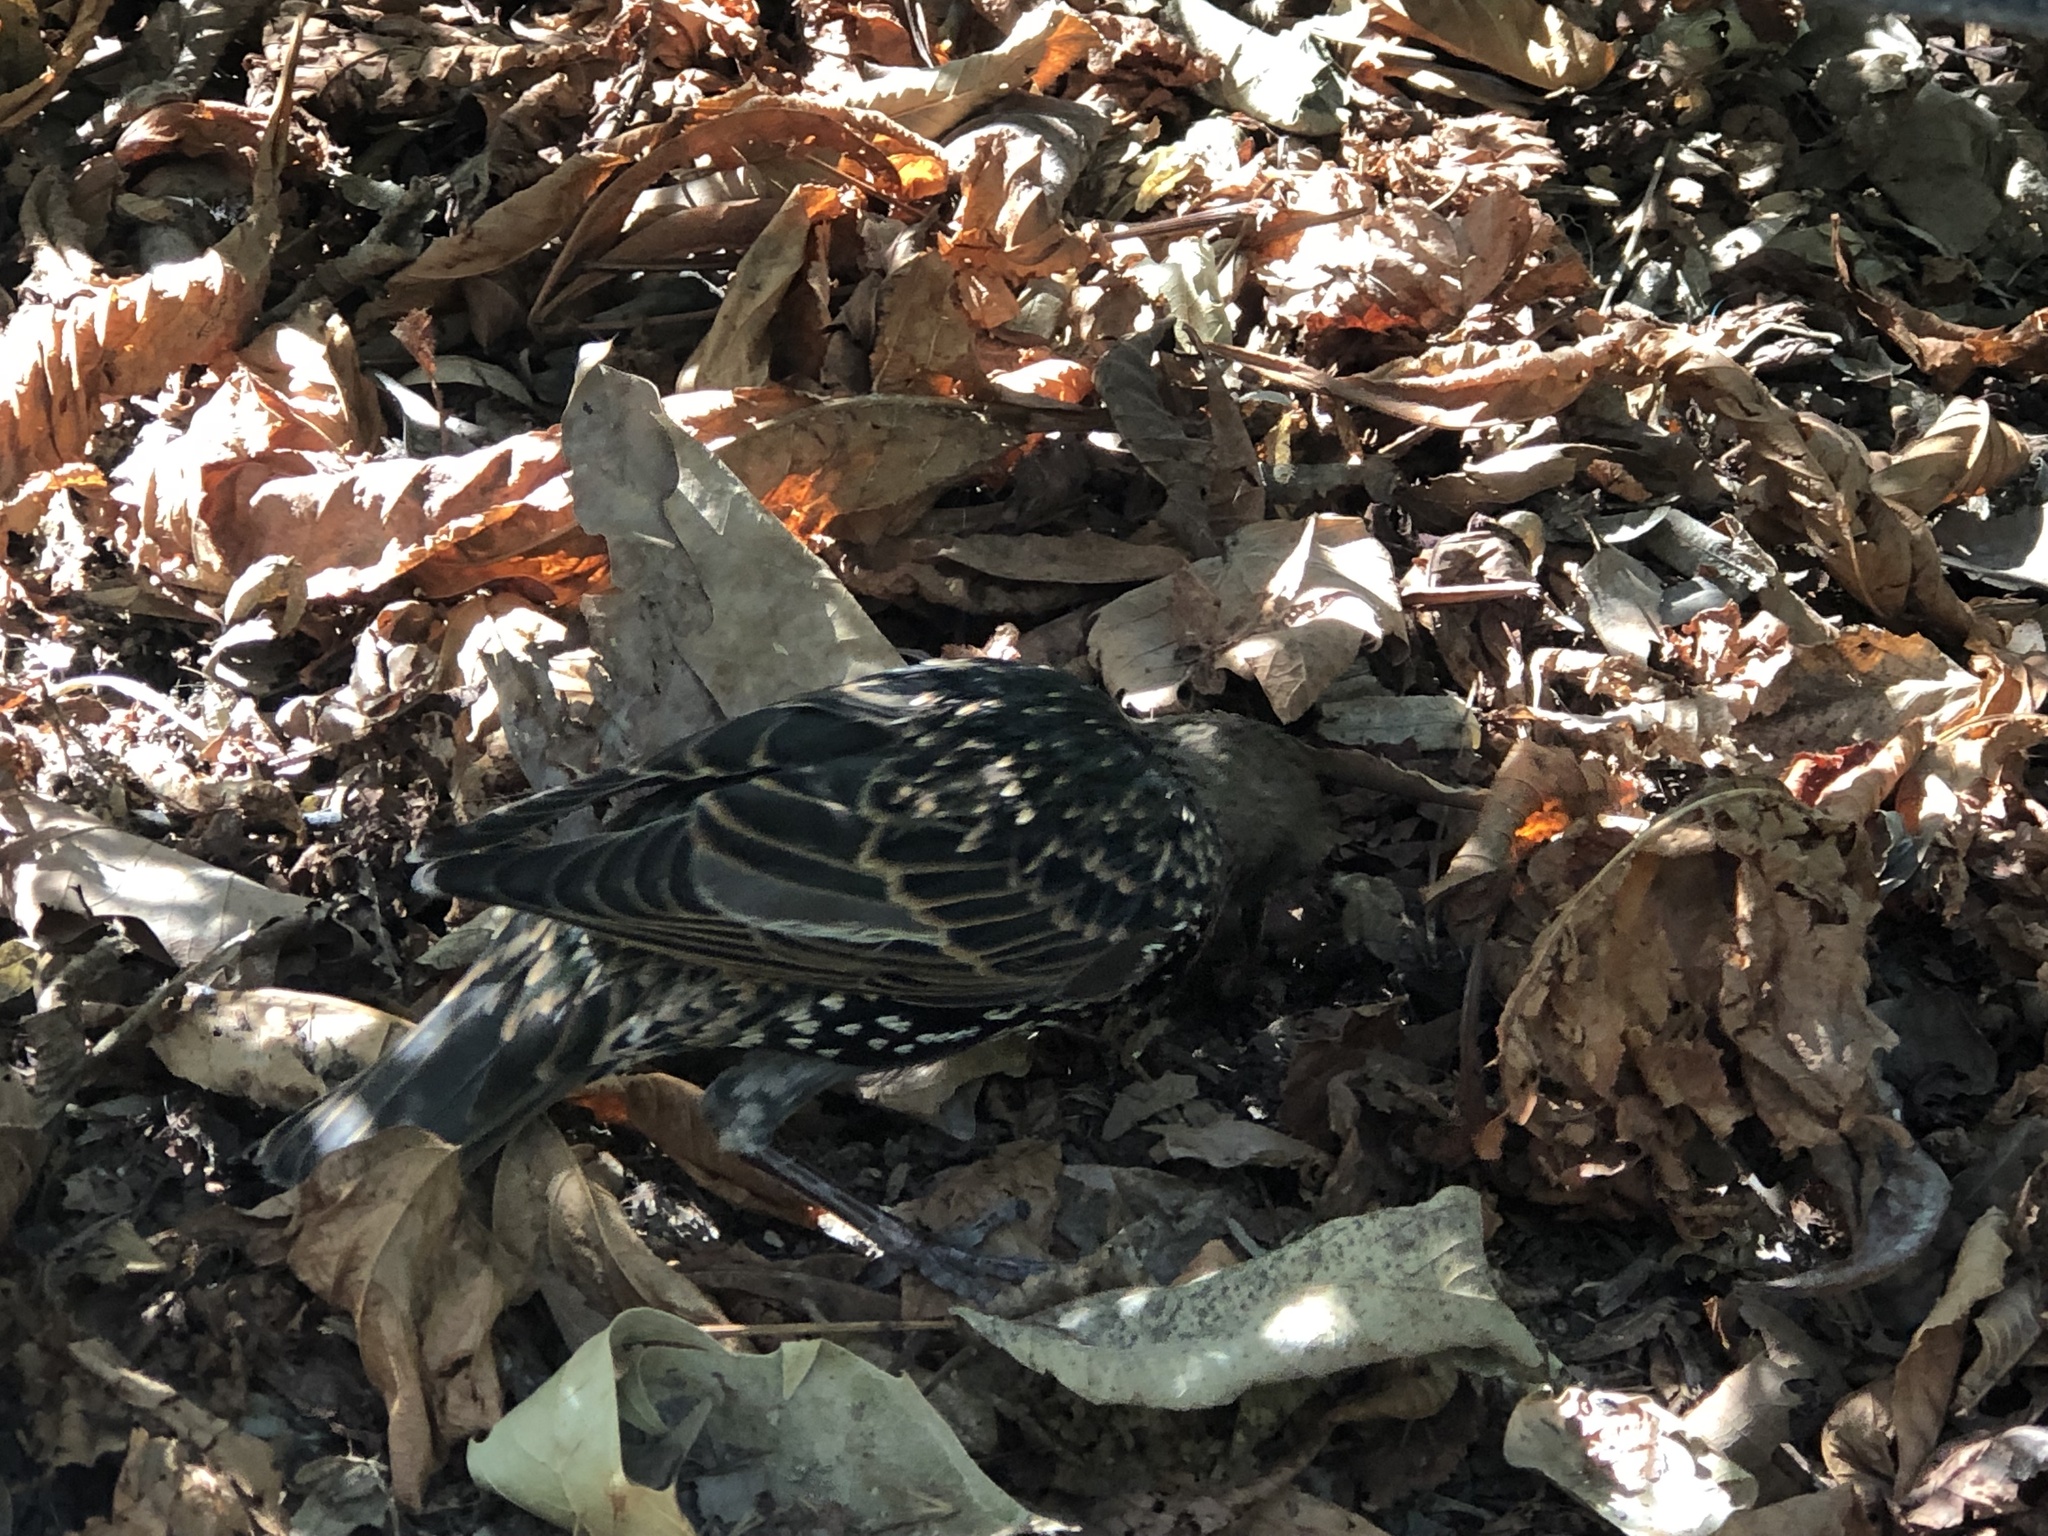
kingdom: Animalia
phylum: Chordata
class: Aves
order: Passeriformes
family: Sturnidae
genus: Sturnus
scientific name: Sturnus vulgaris
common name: Common starling
